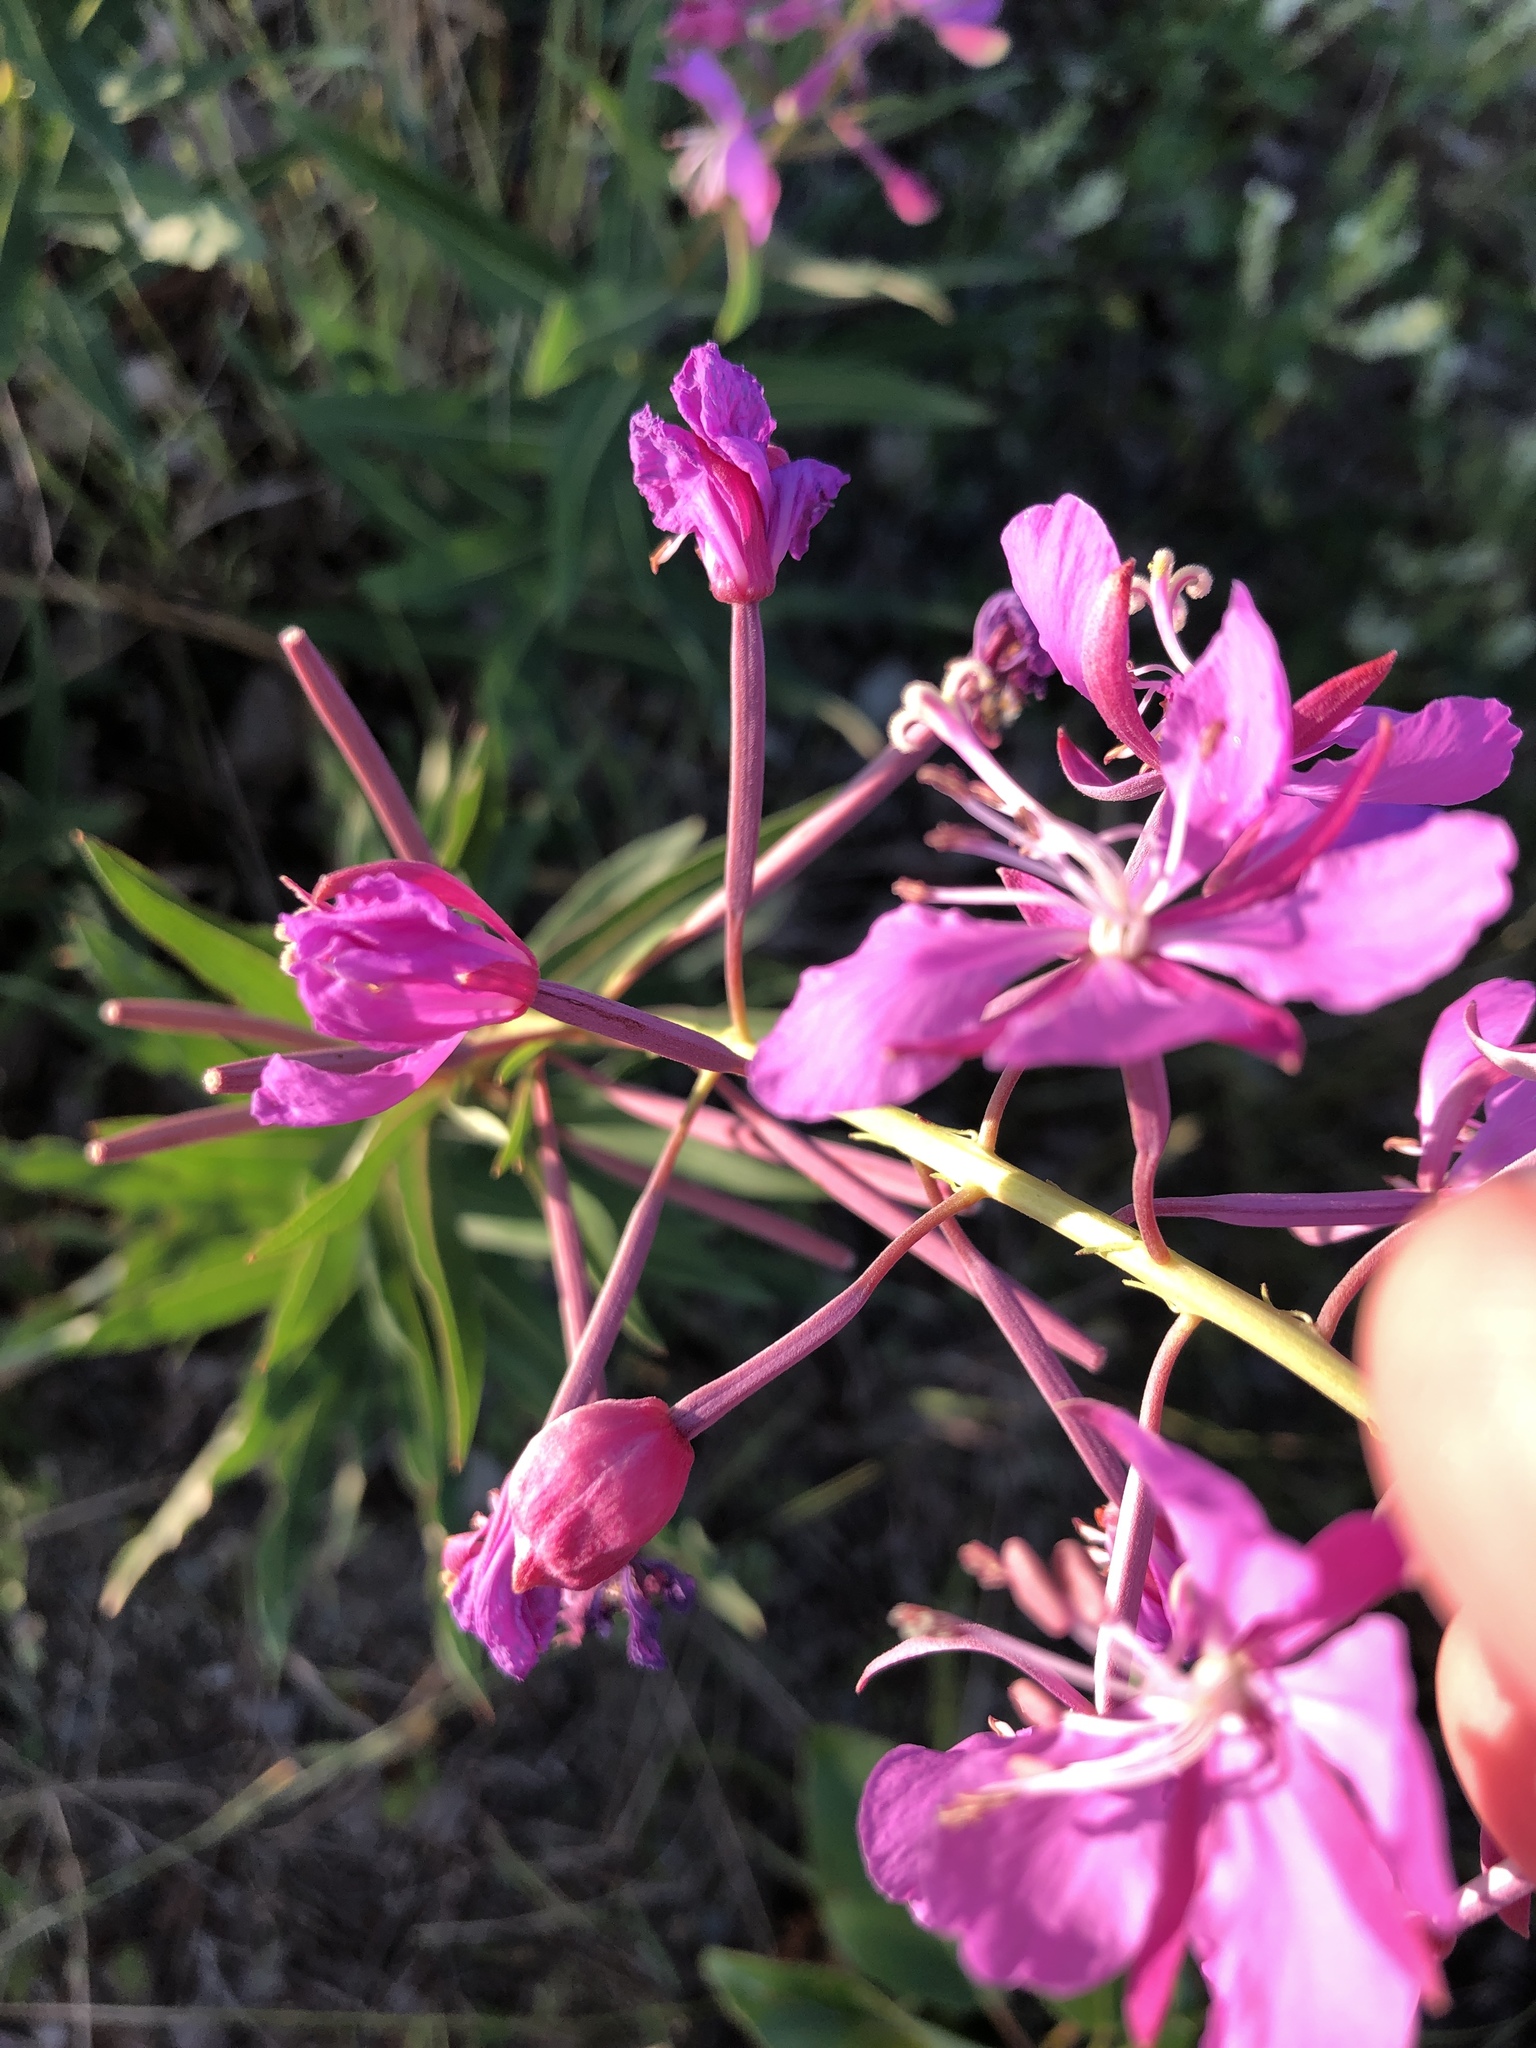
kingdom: Plantae
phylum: Tracheophyta
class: Magnoliopsida
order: Myrtales
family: Onagraceae
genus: Chamaenerion
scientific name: Chamaenerion angustifolium
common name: Fireweed
